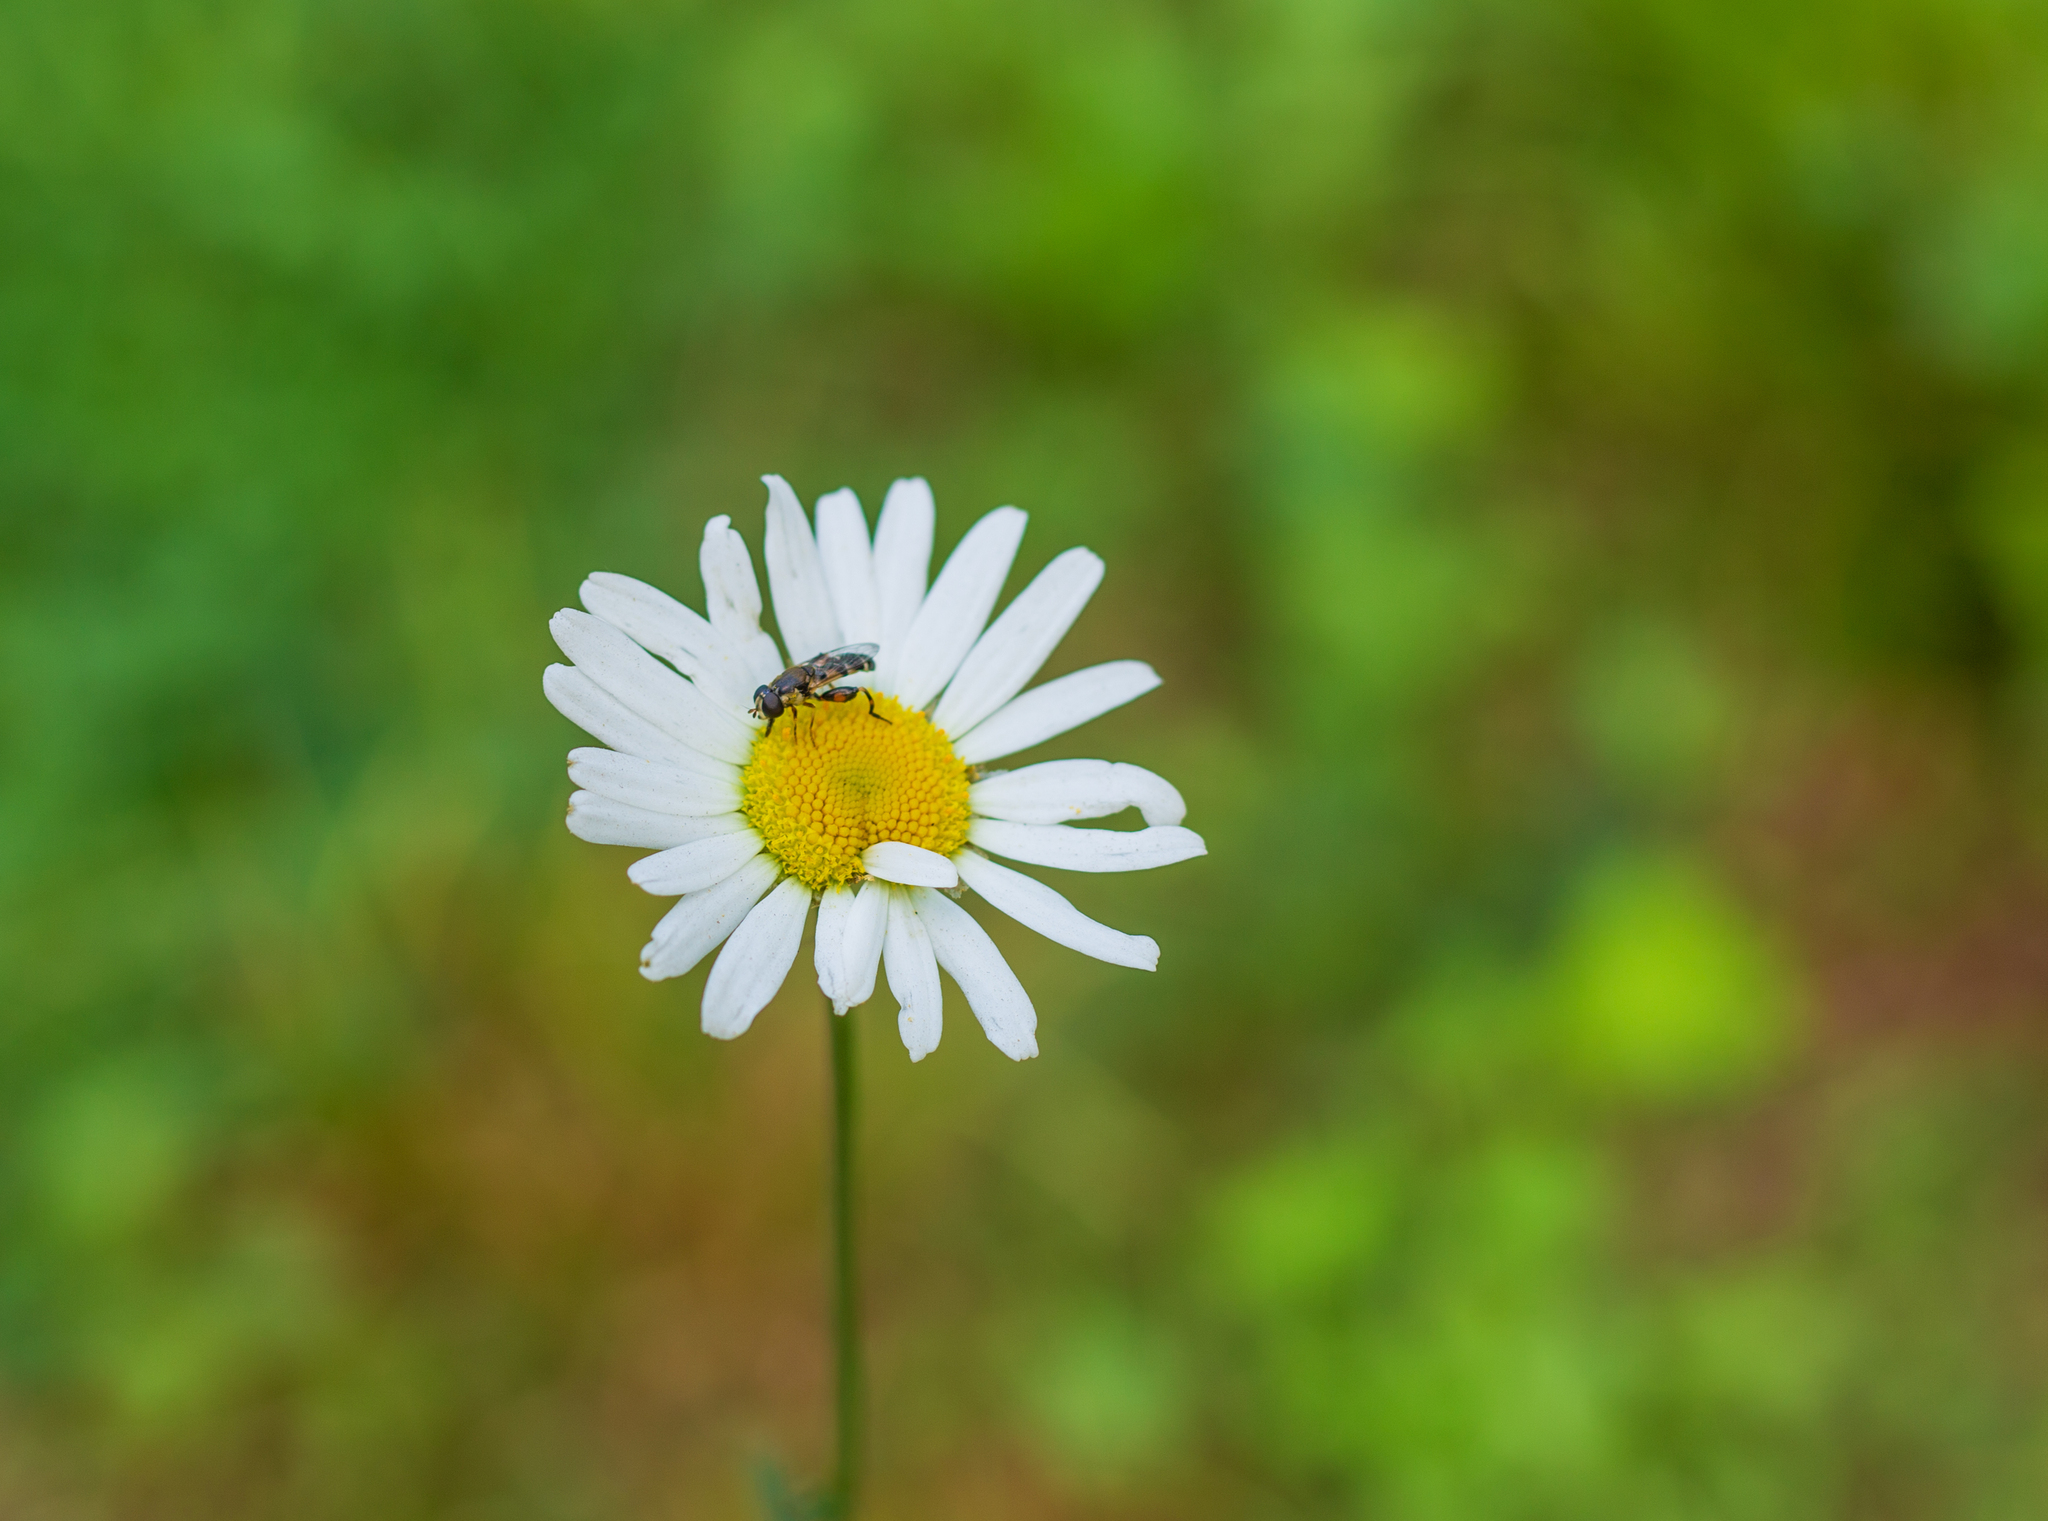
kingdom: Animalia
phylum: Arthropoda
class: Insecta
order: Diptera
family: Syrphidae
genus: Syritta
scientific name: Syritta pipiens
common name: Hover fly
